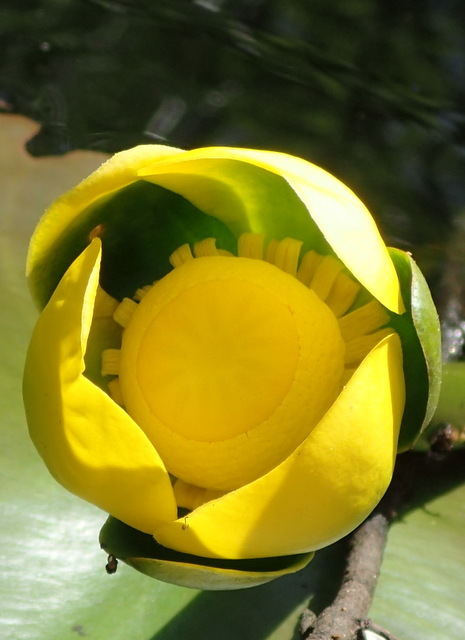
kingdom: Plantae
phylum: Tracheophyta
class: Magnoliopsida
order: Nymphaeales
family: Nymphaeaceae
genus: Nuphar
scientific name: Nuphar advena
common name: Spatter-dock
